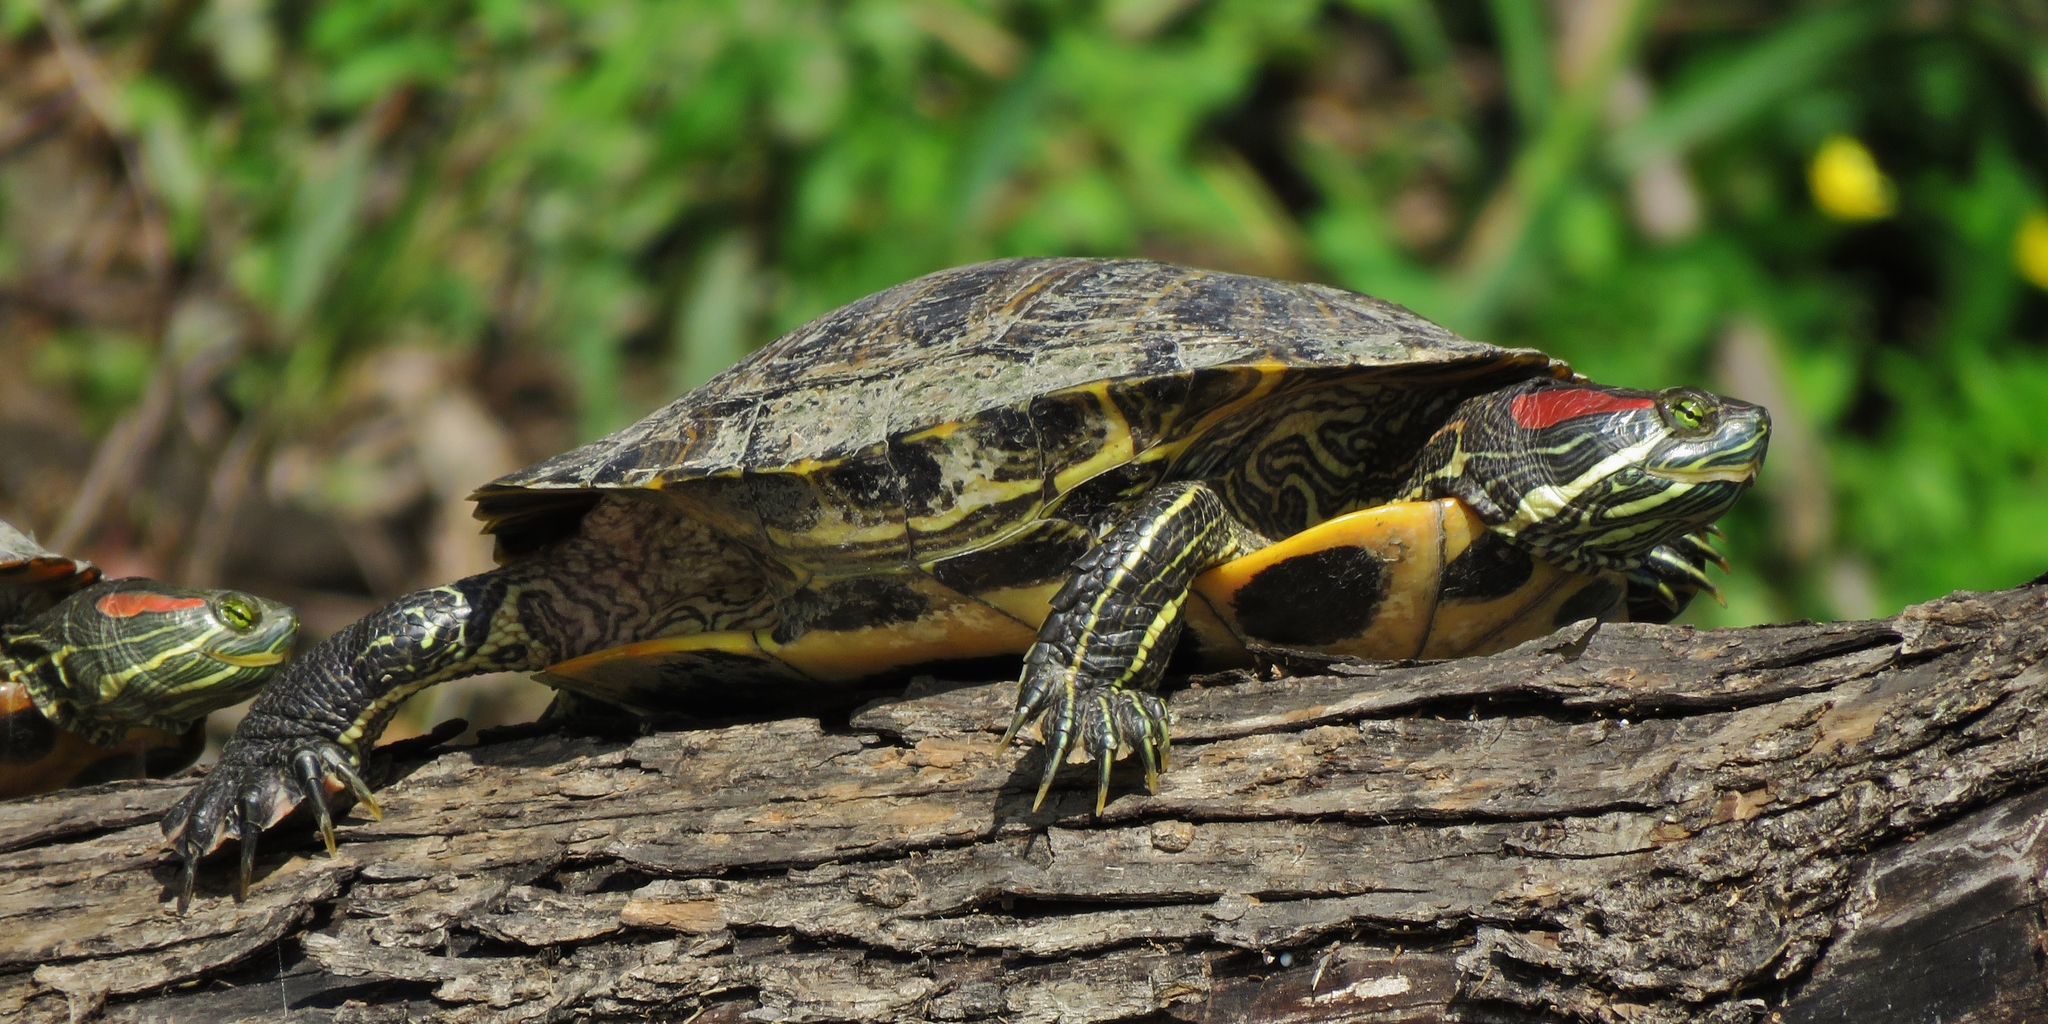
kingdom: Animalia
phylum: Chordata
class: Testudines
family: Emydidae
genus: Trachemys
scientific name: Trachemys scripta
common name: Slider
